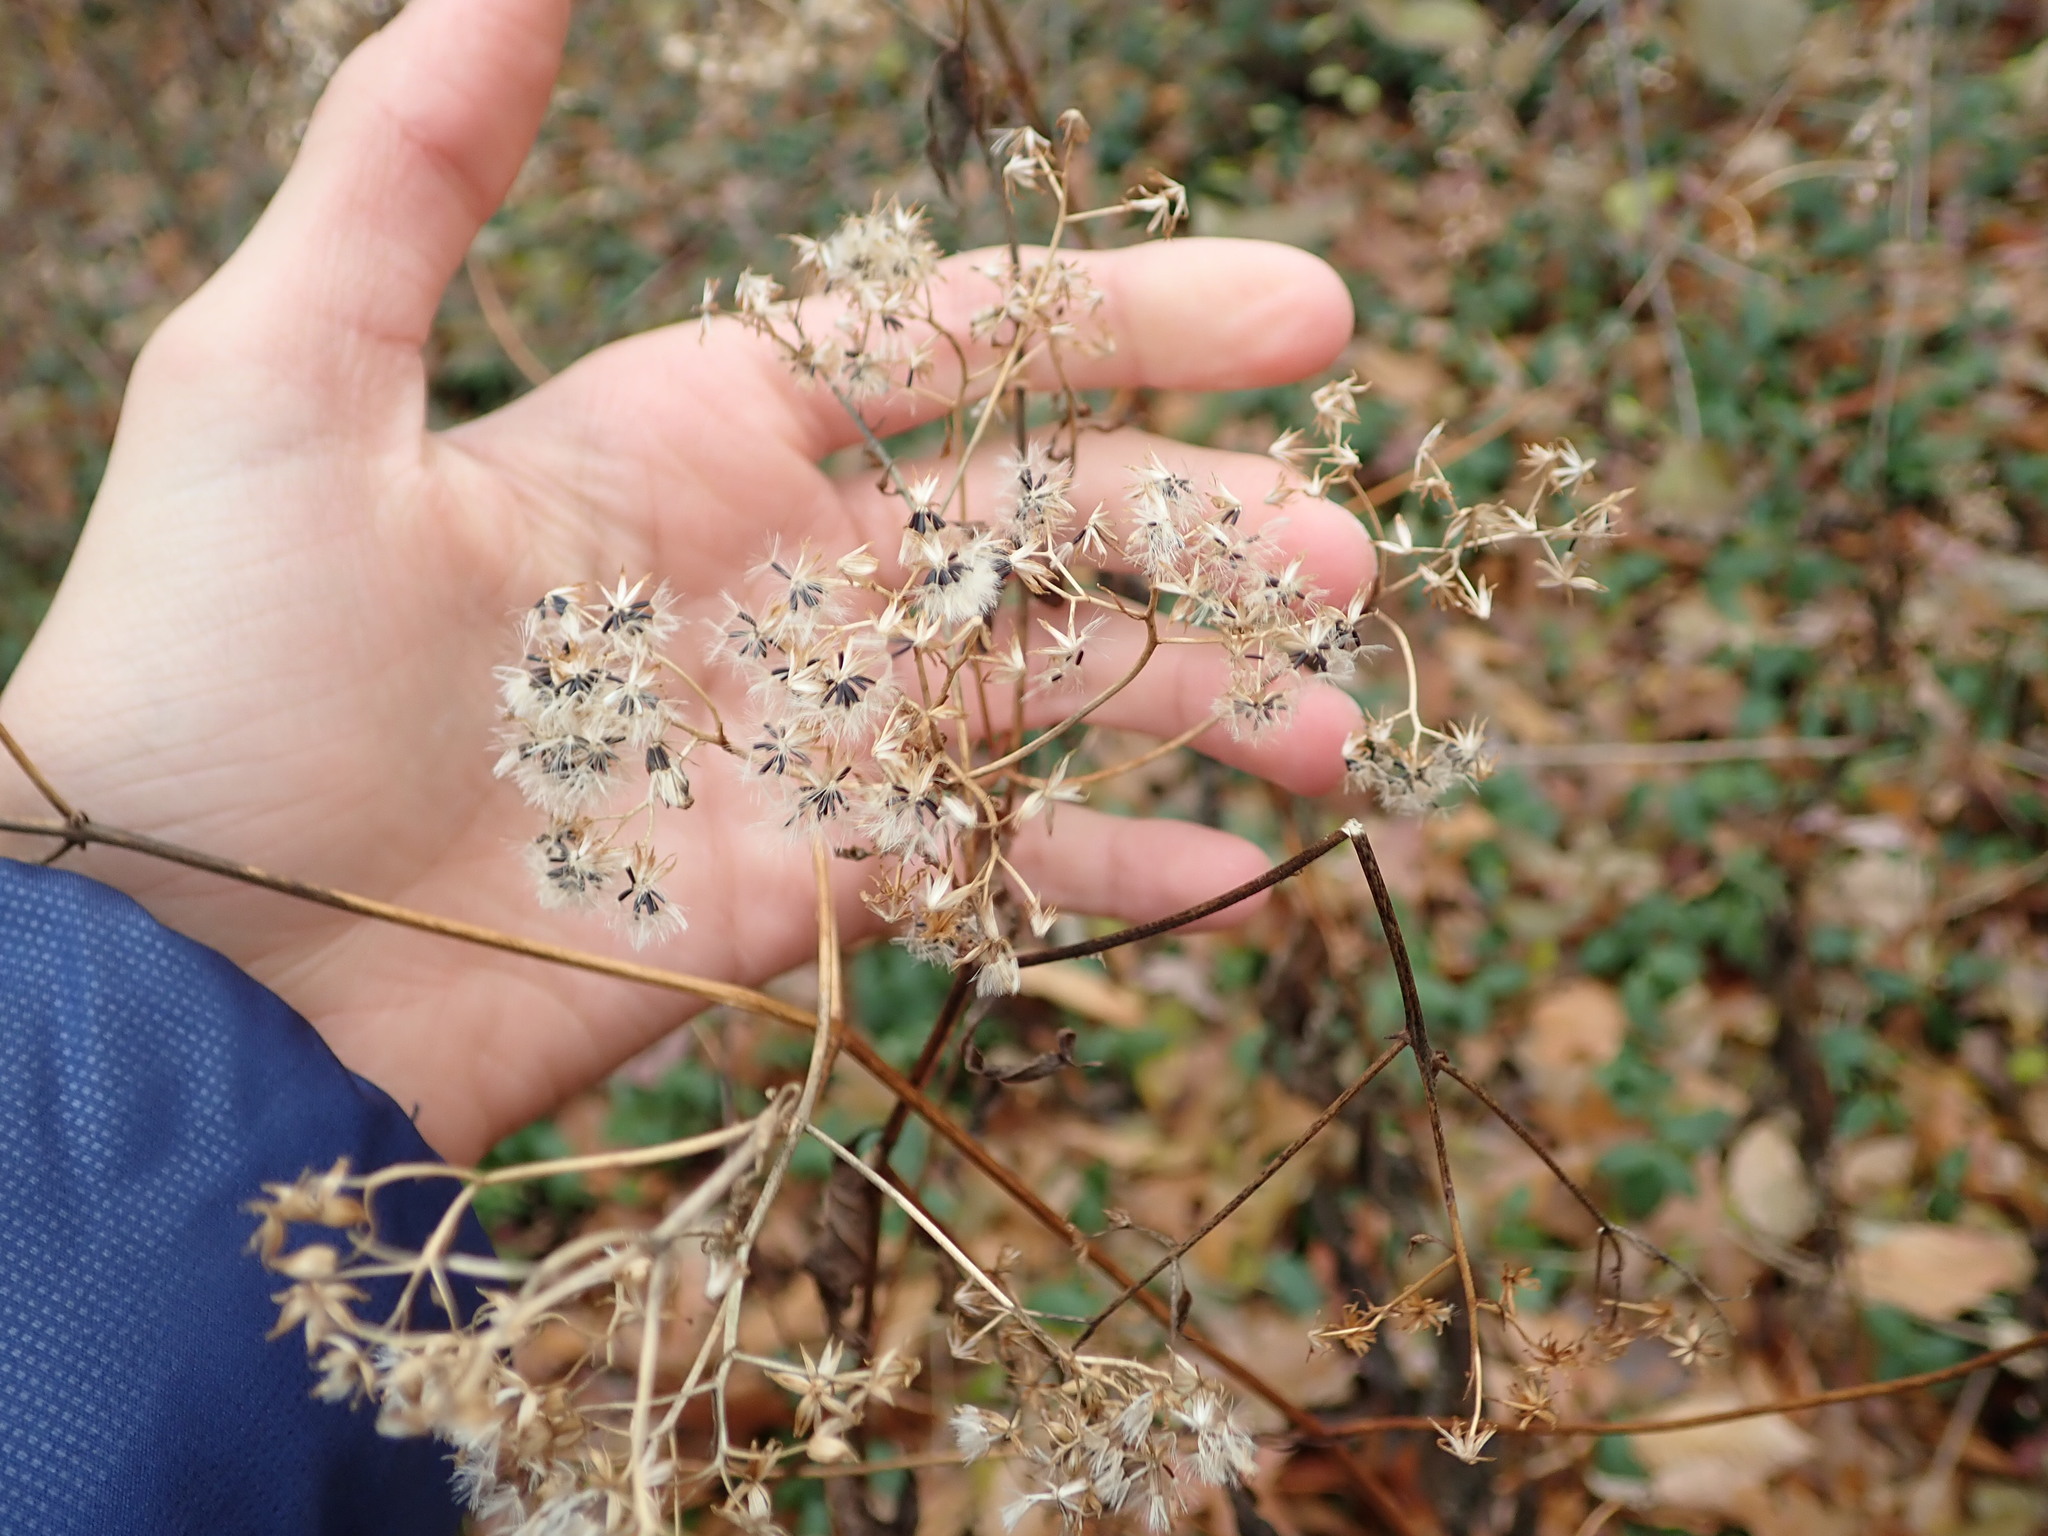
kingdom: Plantae
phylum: Tracheophyta
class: Magnoliopsida
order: Asterales
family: Asteraceae
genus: Ageratina
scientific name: Ageratina altissima
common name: White snakeroot
